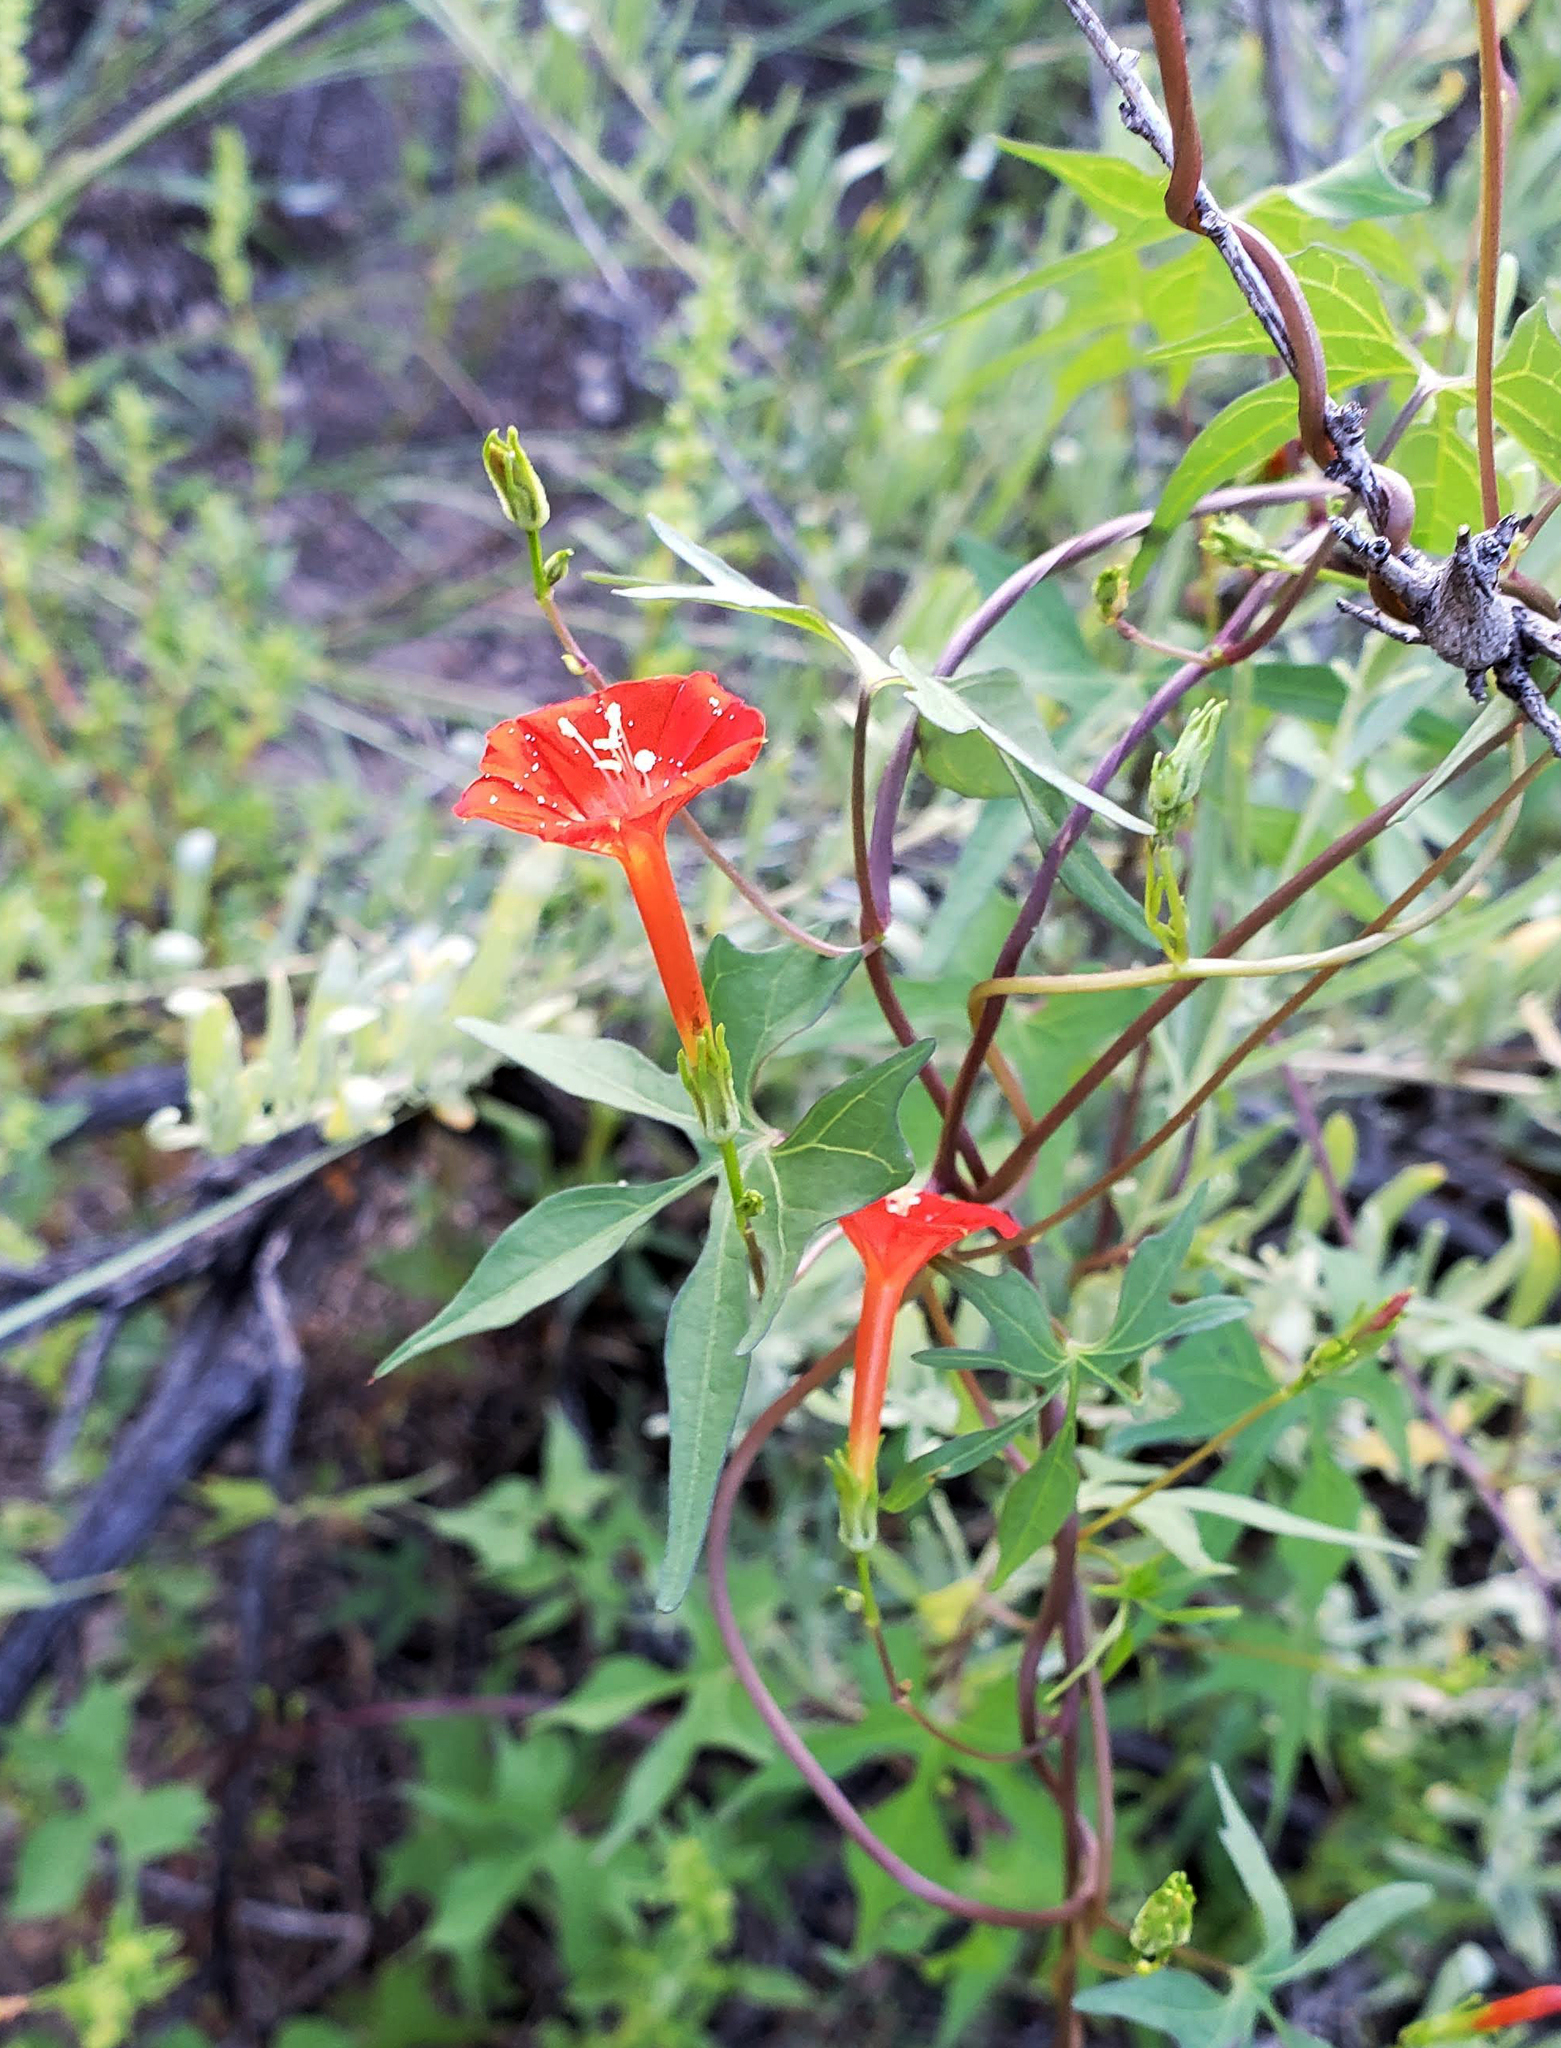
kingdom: Plantae
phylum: Tracheophyta
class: Magnoliopsida
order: Solanales
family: Convolvulaceae
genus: Ipomoea
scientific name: Ipomoea cristulata
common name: Trans-pecos morning-glory
